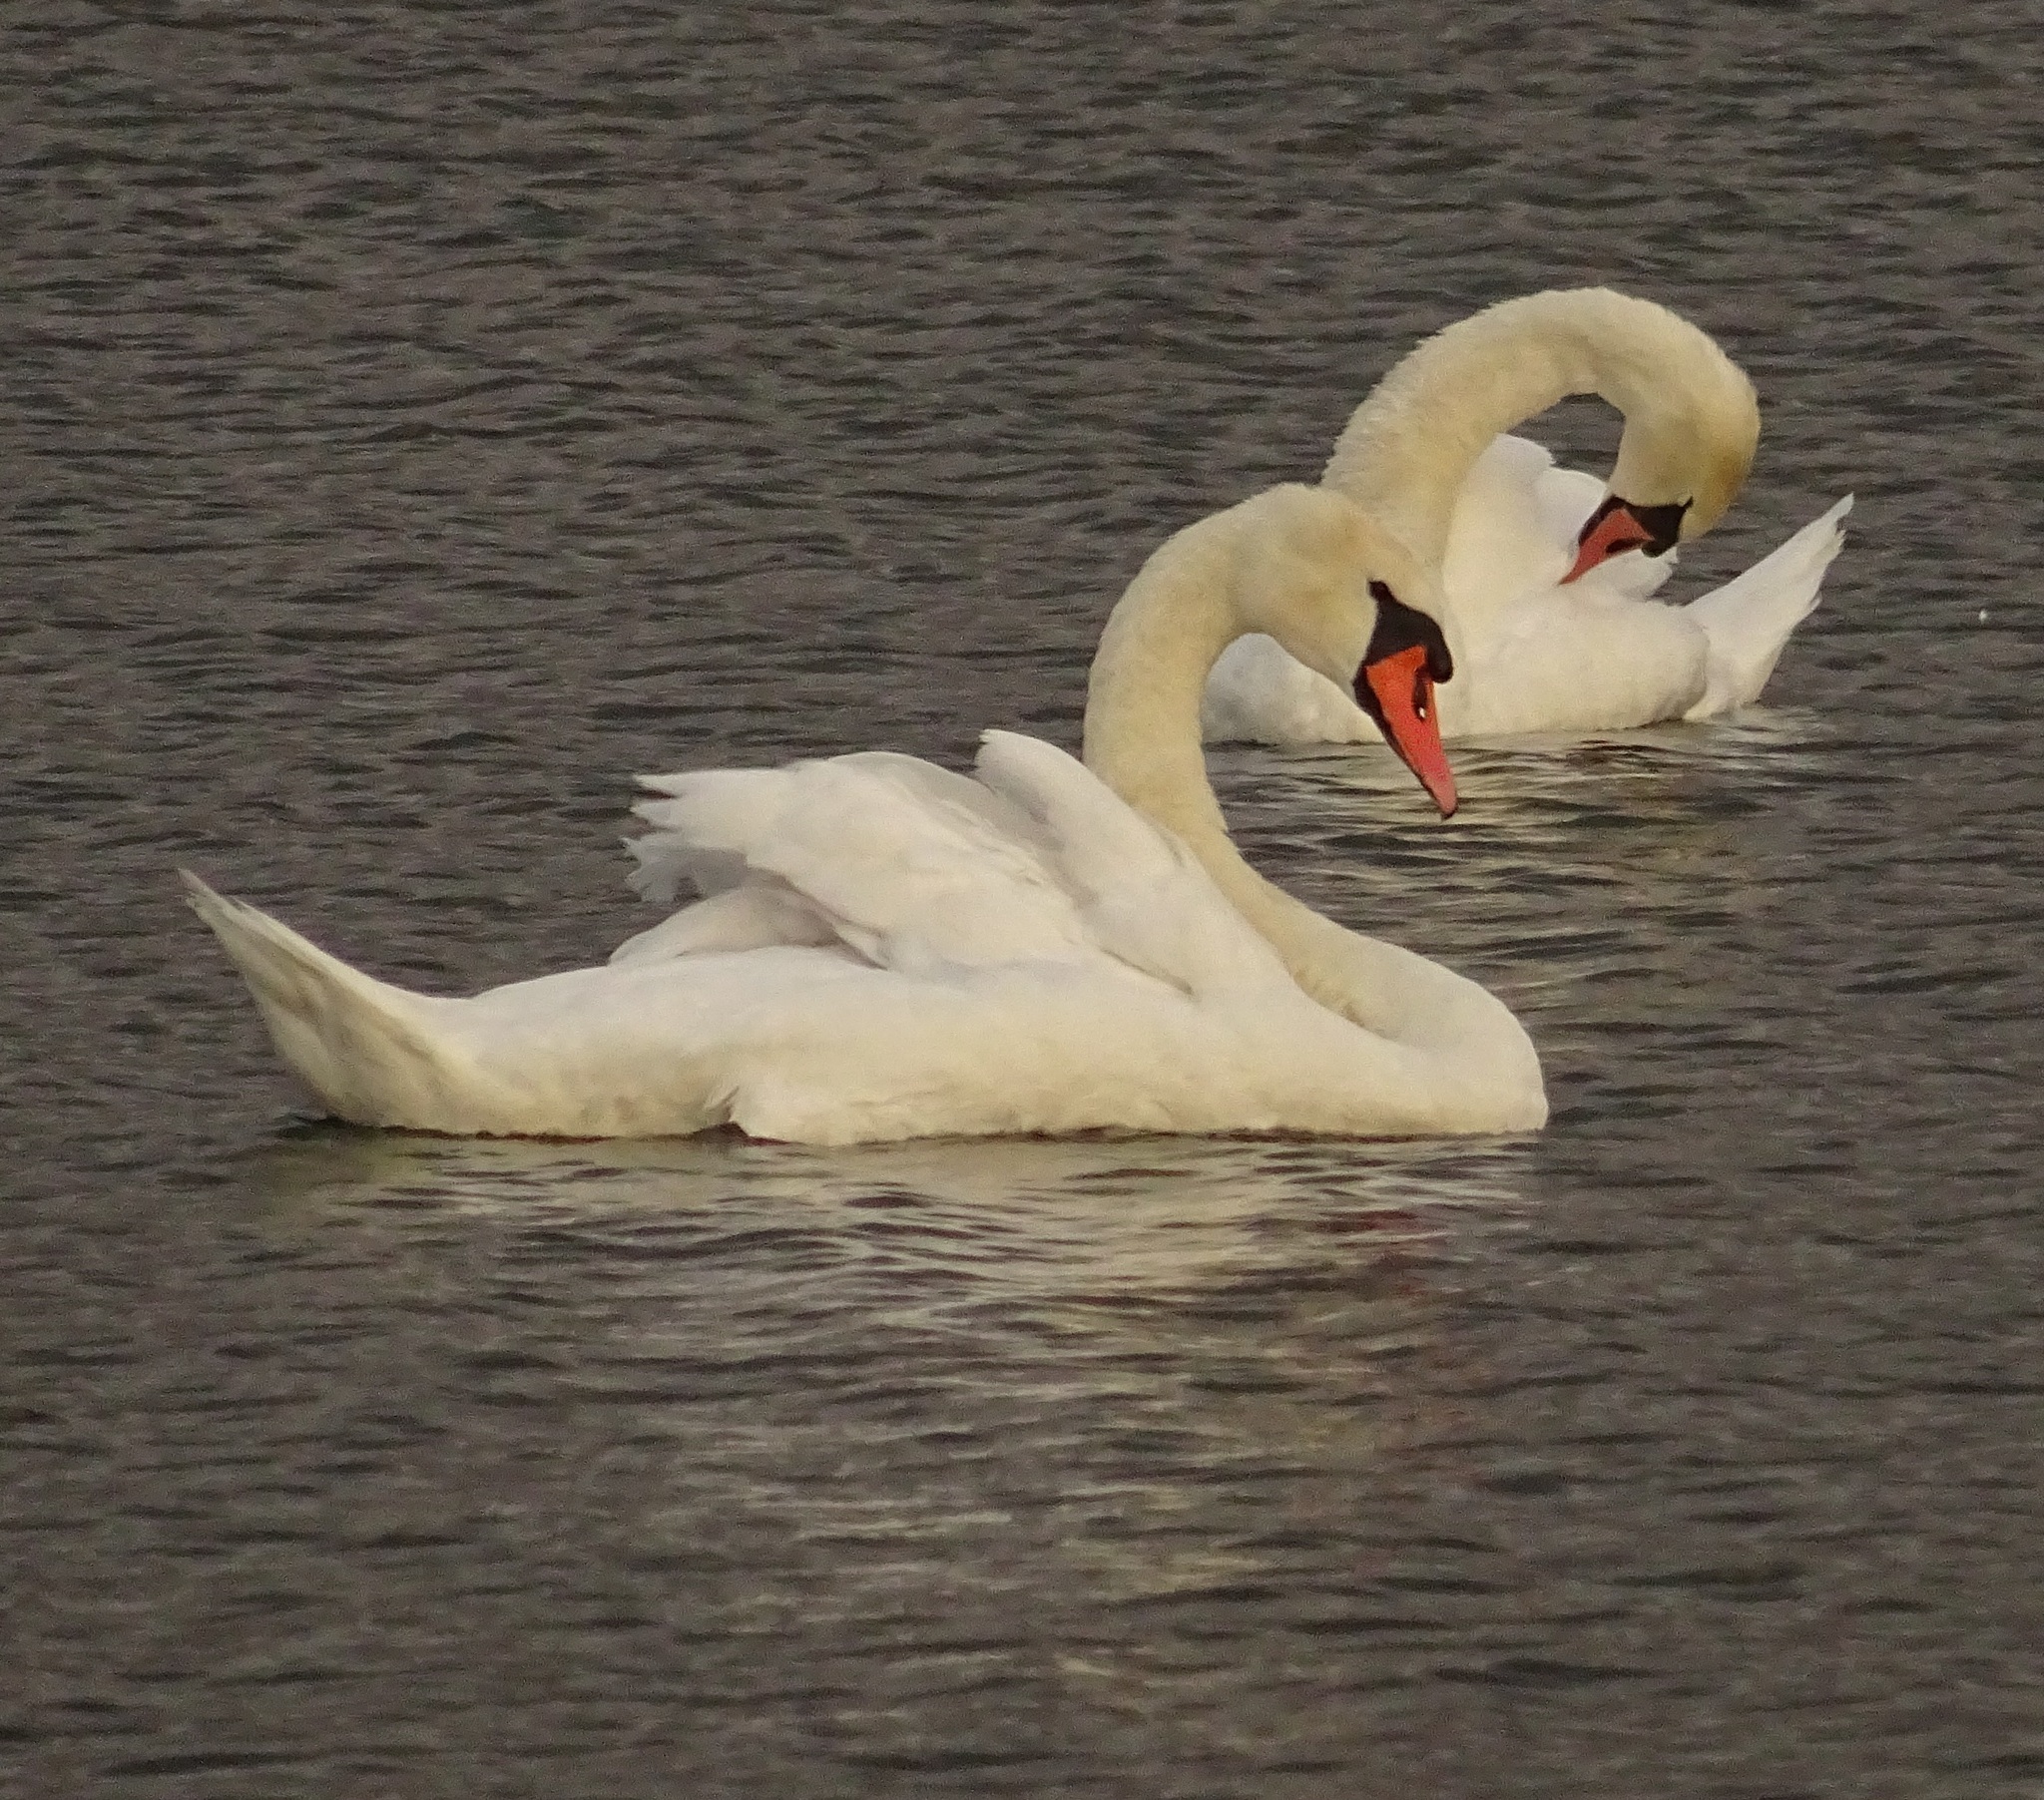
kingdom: Animalia
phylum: Chordata
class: Aves
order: Anseriformes
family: Anatidae
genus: Cygnus
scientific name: Cygnus olor
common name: Mute swan
